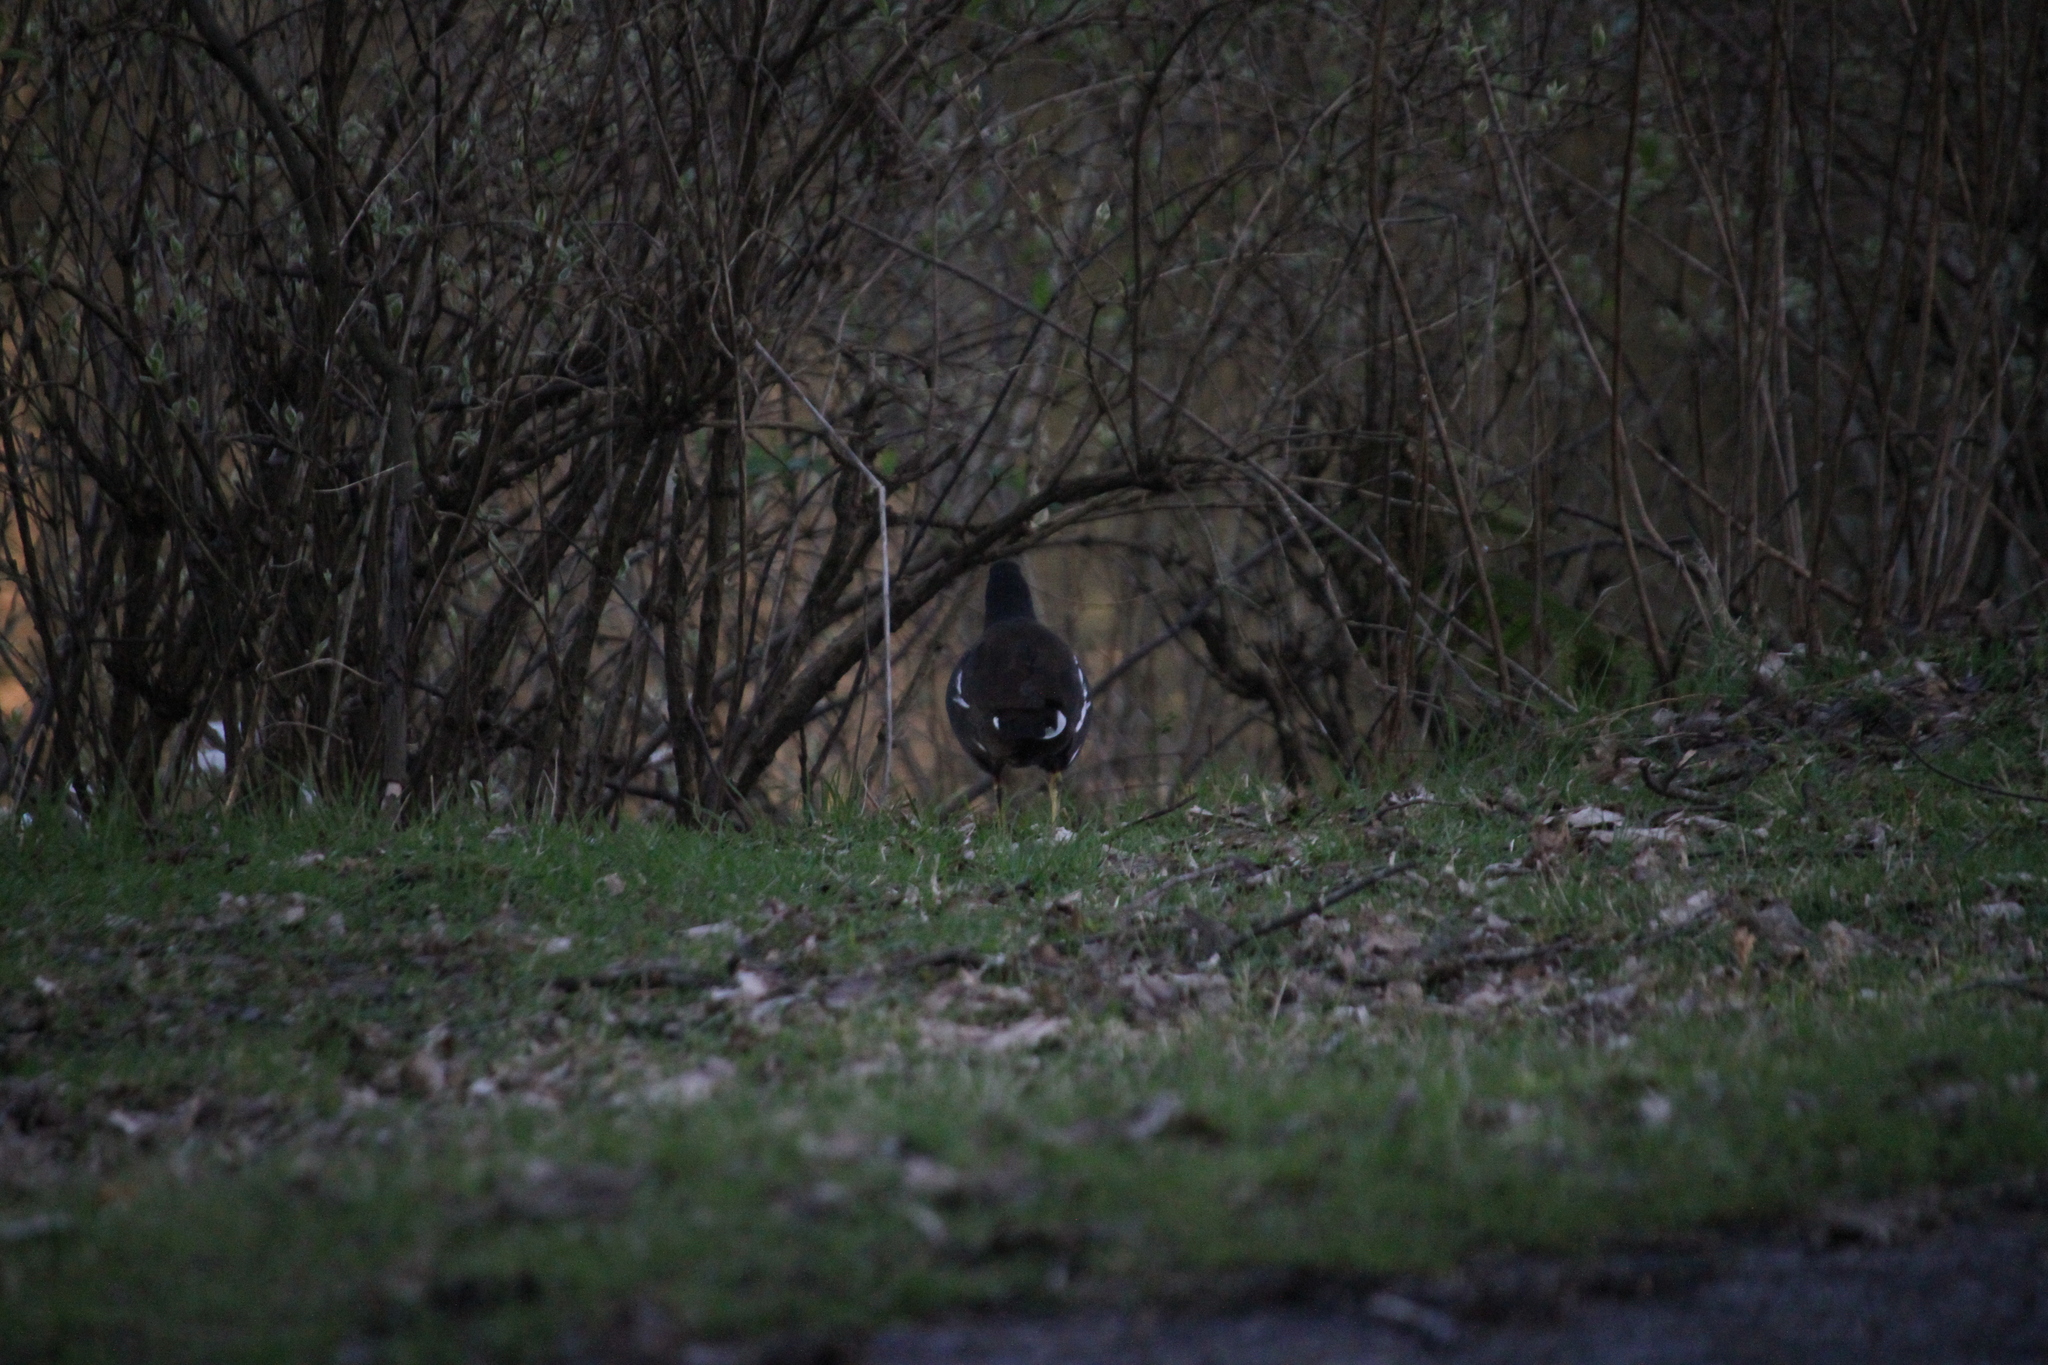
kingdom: Animalia
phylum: Chordata
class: Aves
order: Gruiformes
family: Rallidae
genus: Gallinula
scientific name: Gallinula chloropus
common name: Common moorhen
